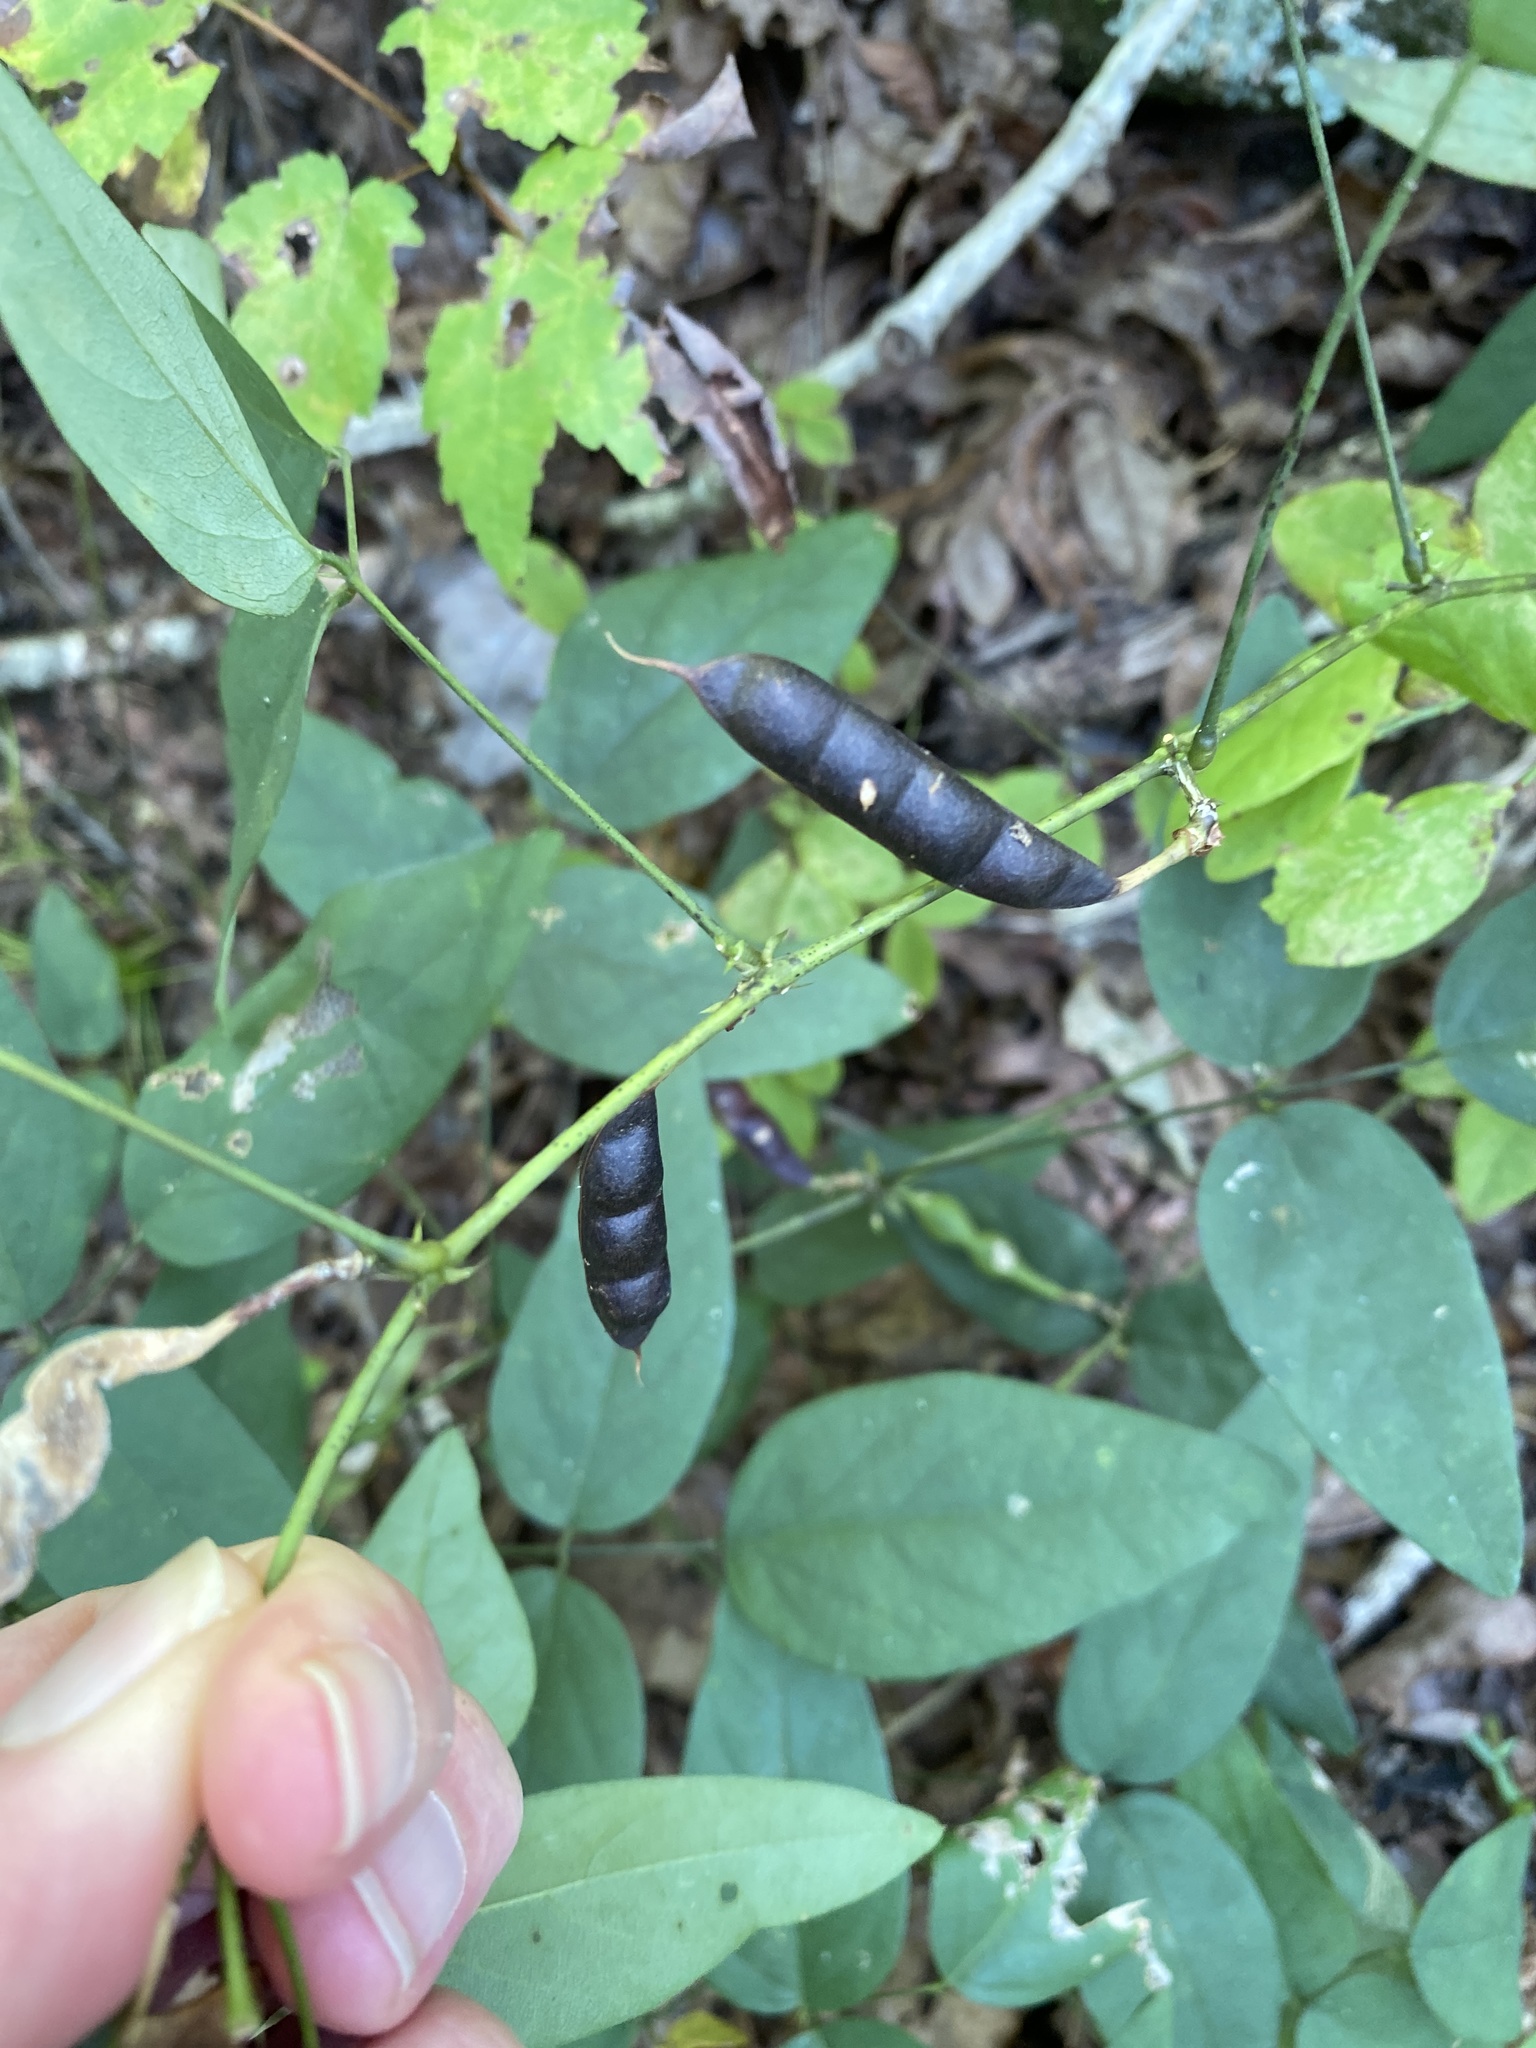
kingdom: Plantae
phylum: Tracheophyta
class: Magnoliopsida
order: Fabales
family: Fabaceae
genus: Clitoria
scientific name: Clitoria mariana
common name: Butterfly-pea
